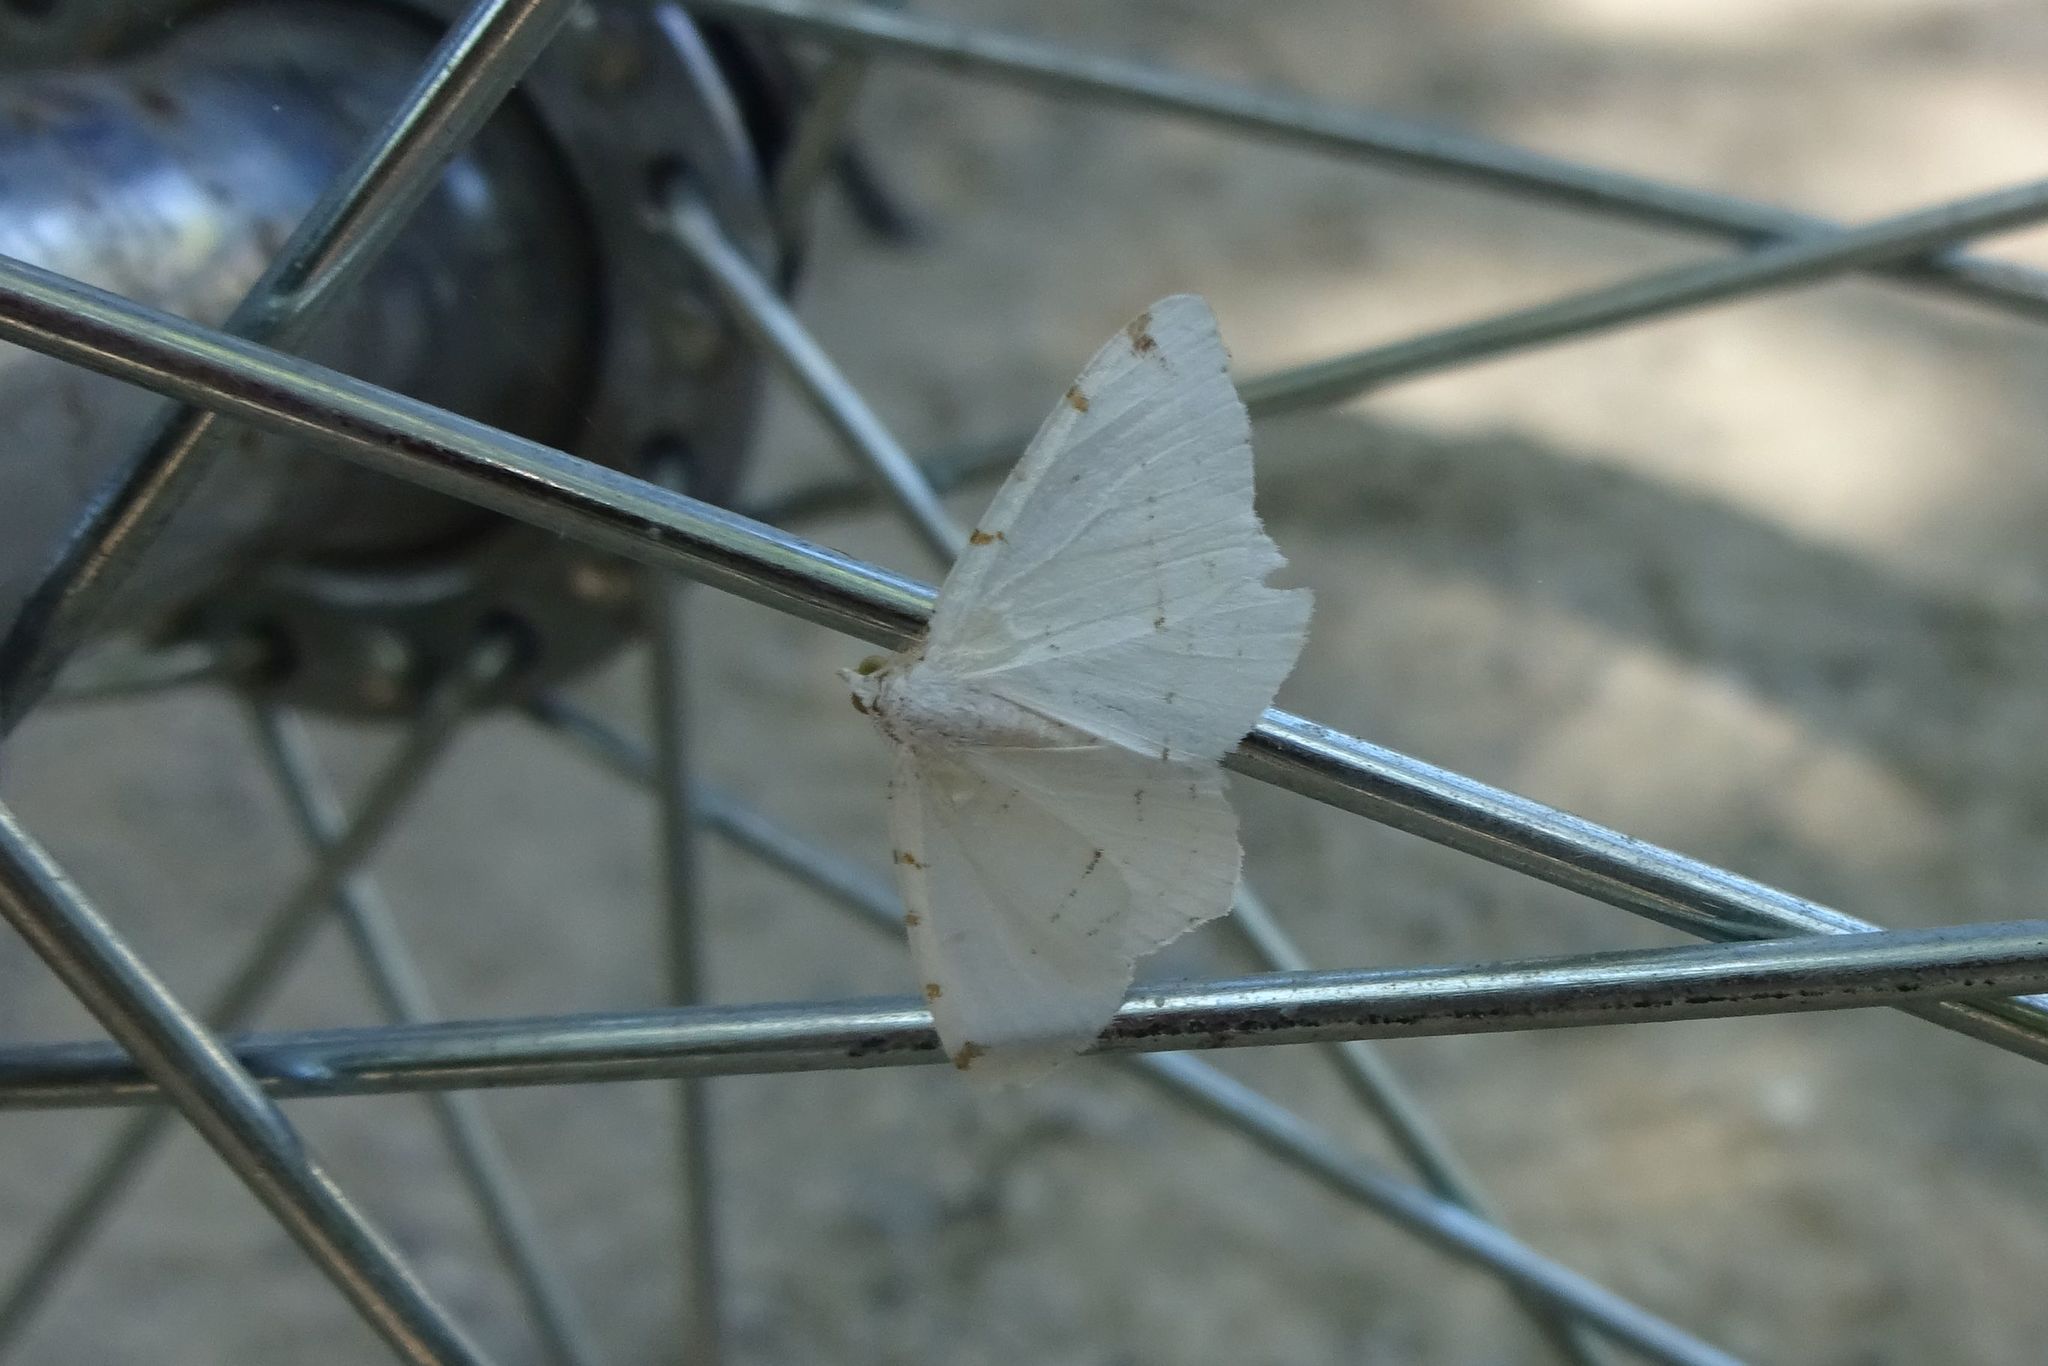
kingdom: Animalia
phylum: Arthropoda
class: Insecta
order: Lepidoptera
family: Geometridae
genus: Macaria
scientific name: Macaria pustularia
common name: Lesser maple spanworm moth
